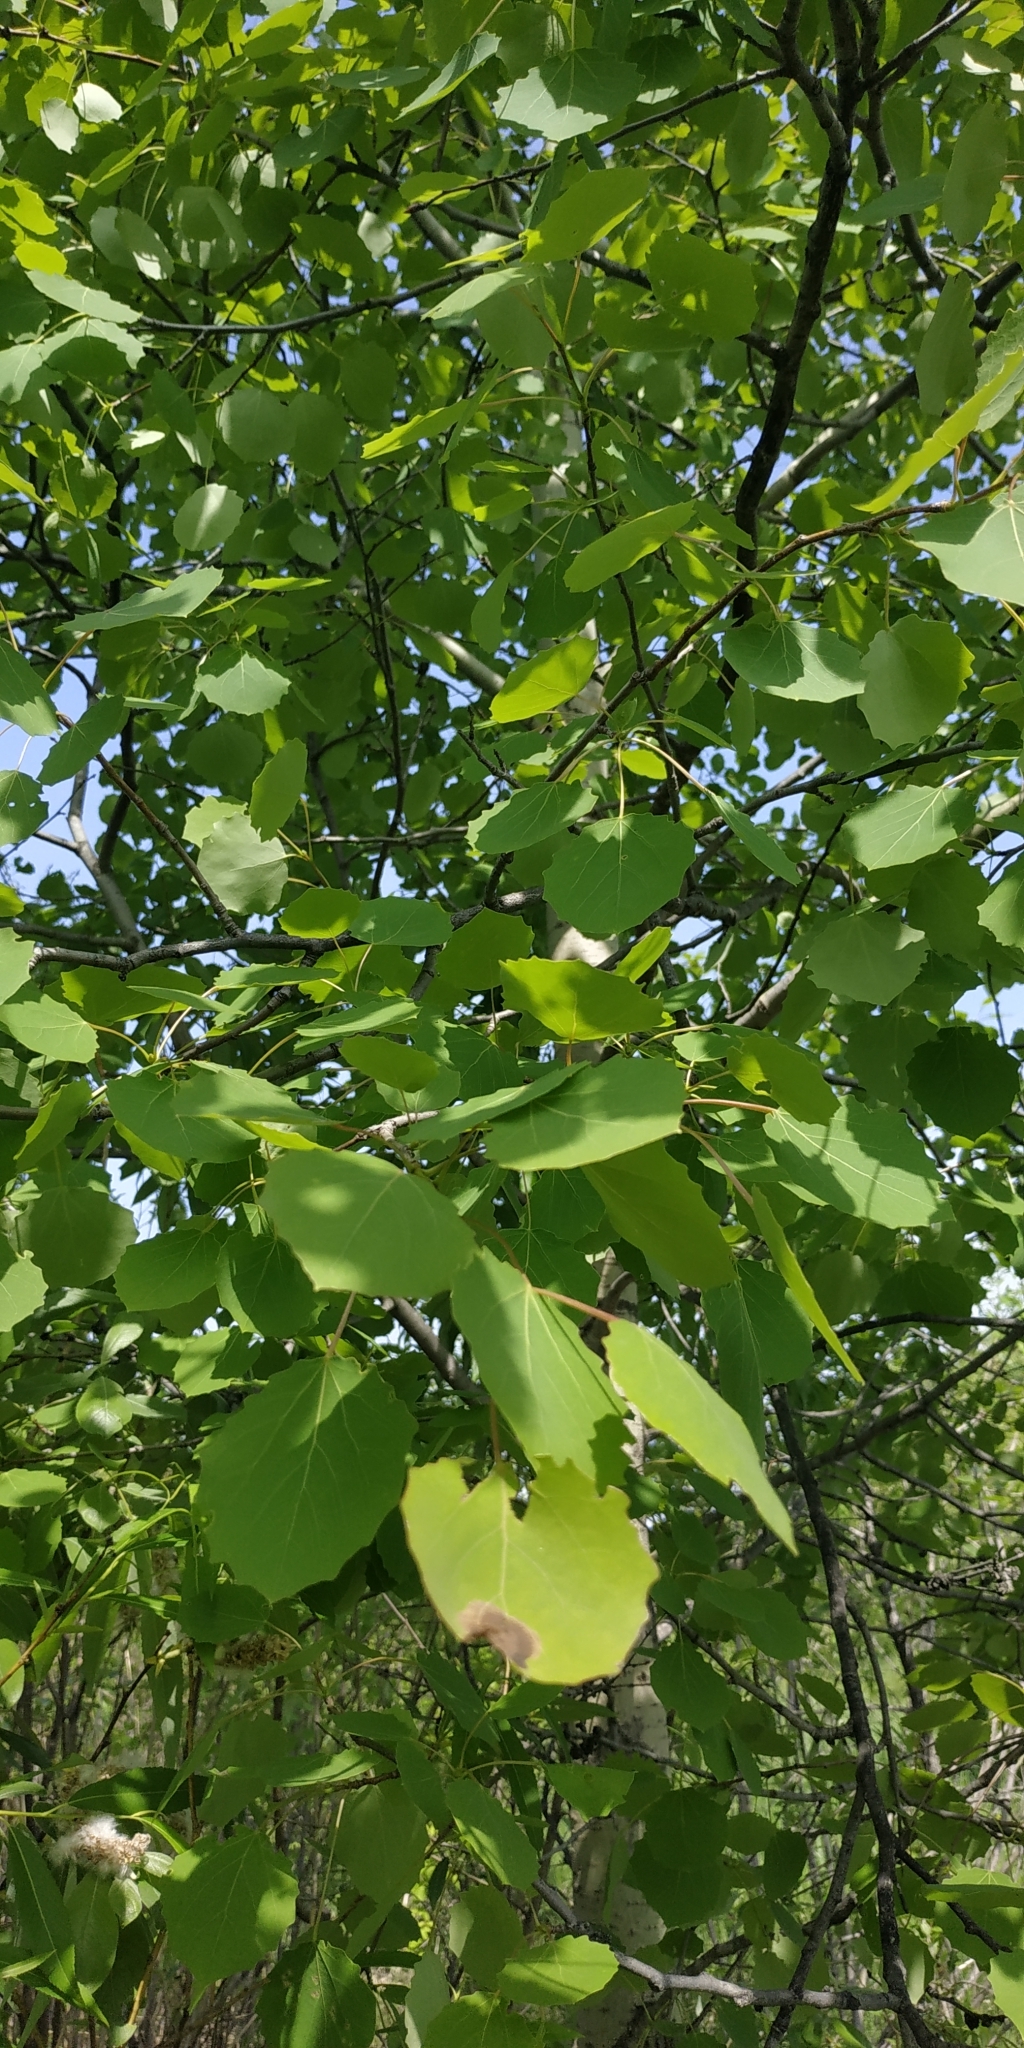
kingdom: Plantae
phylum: Tracheophyta
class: Magnoliopsida
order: Malpighiales
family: Salicaceae
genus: Populus
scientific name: Populus tremula
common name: European aspen
